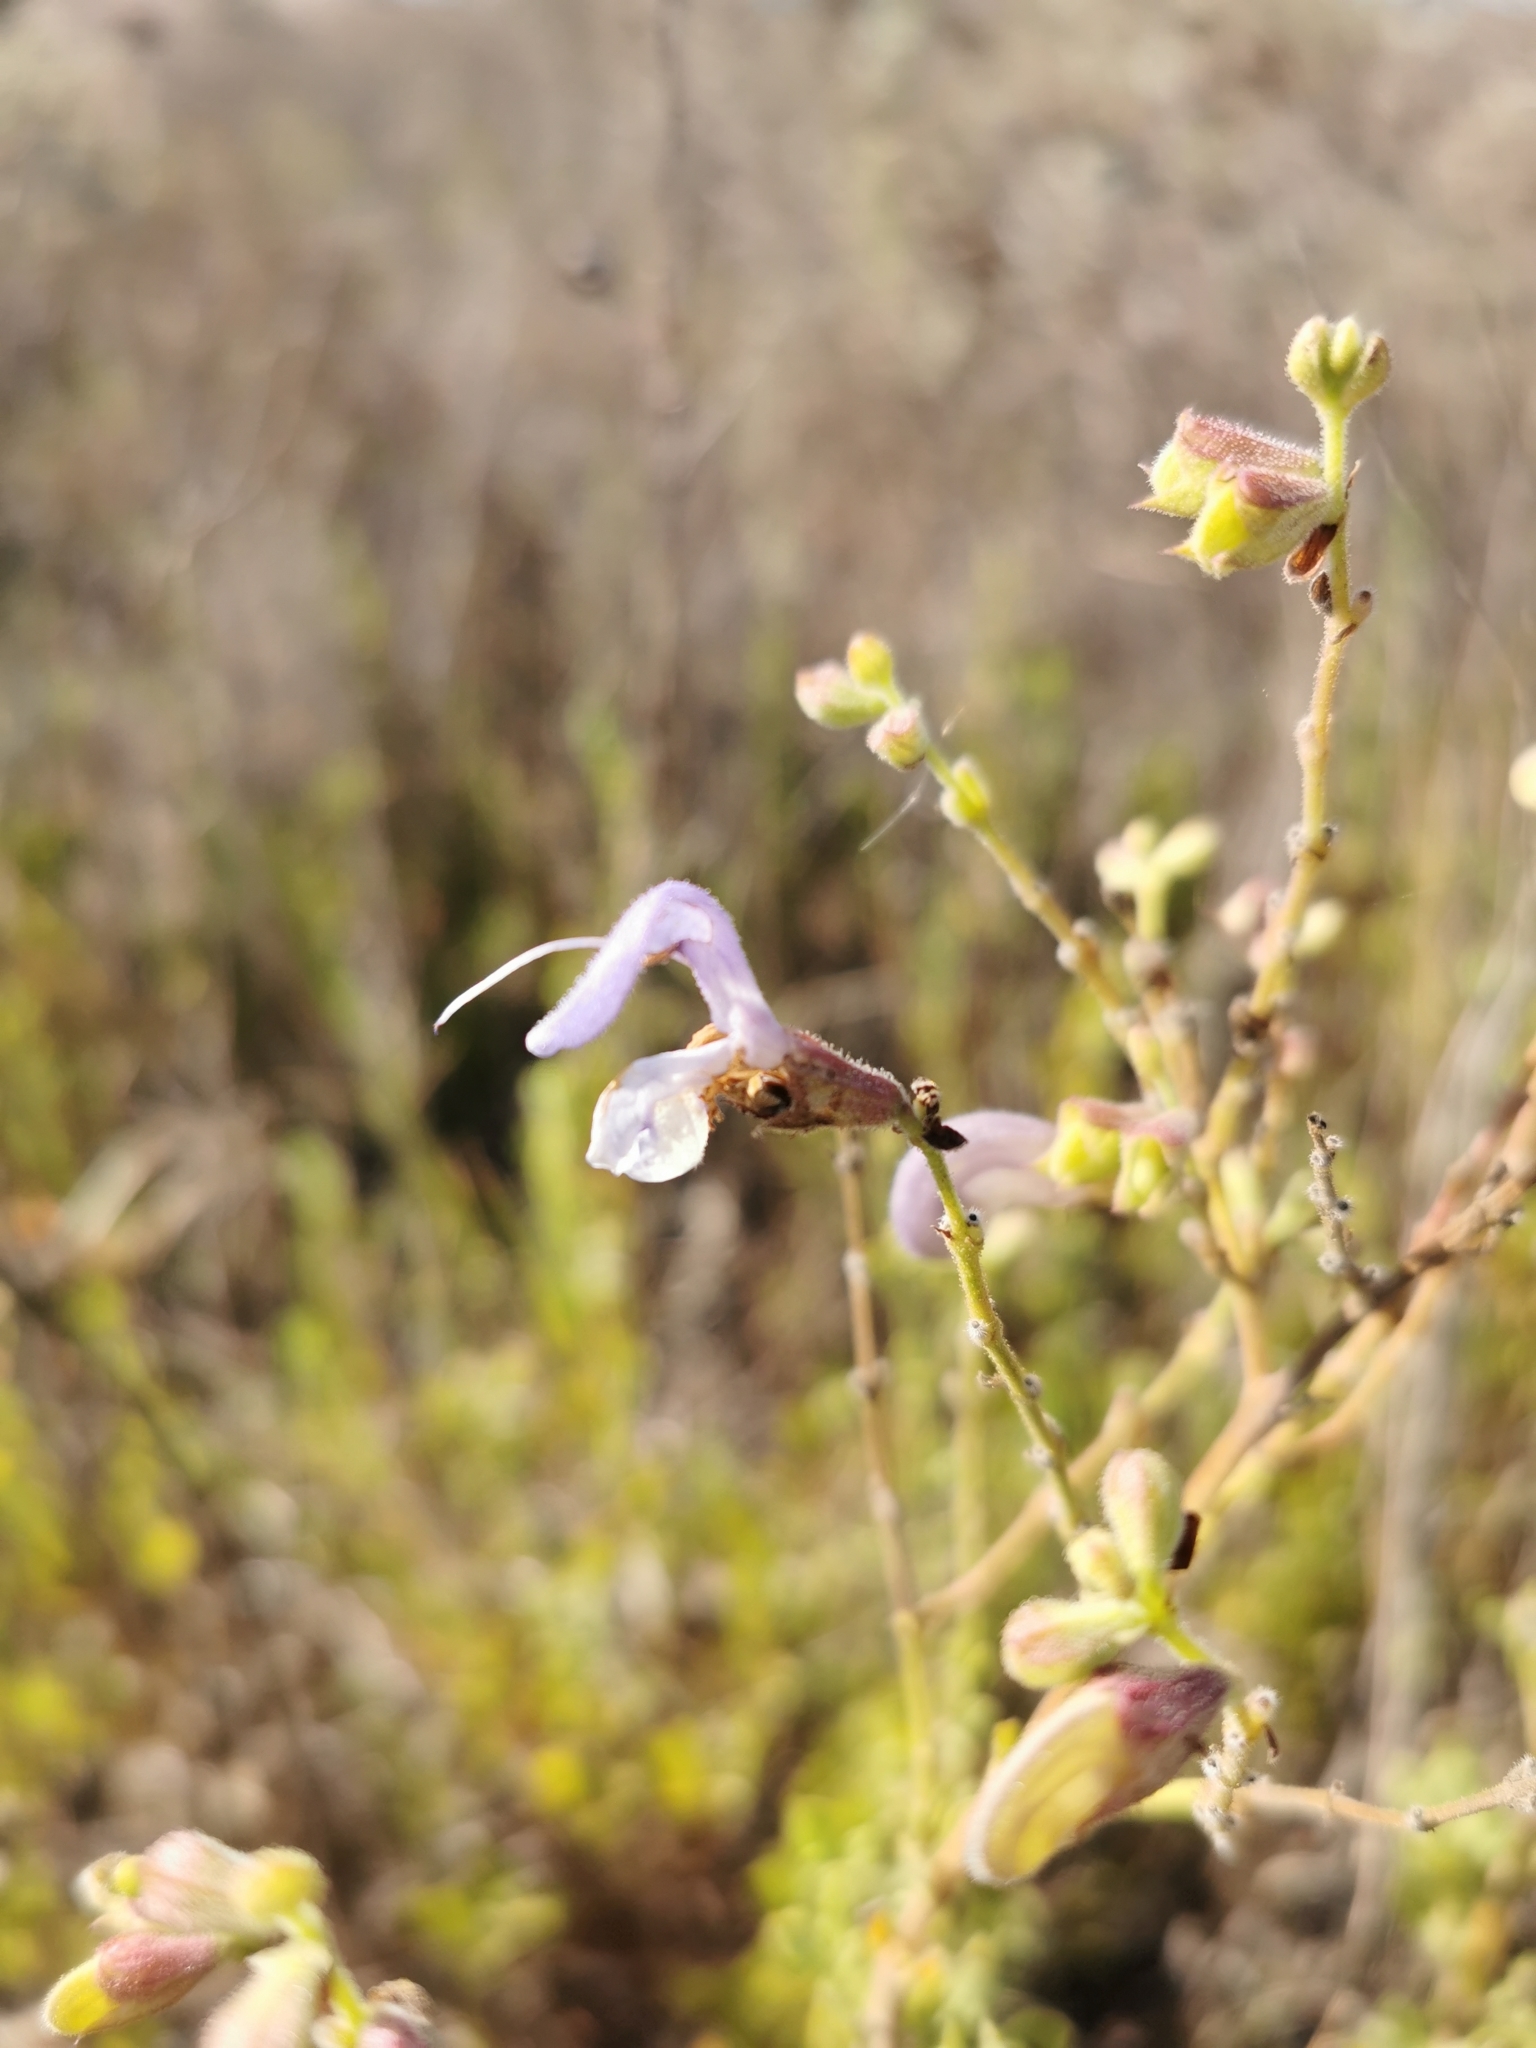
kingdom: Plantae
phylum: Tracheophyta
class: Magnoliopsida
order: Lamiales
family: Lamiaceae
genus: Salvia
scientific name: Salvia chamelaeagnea
